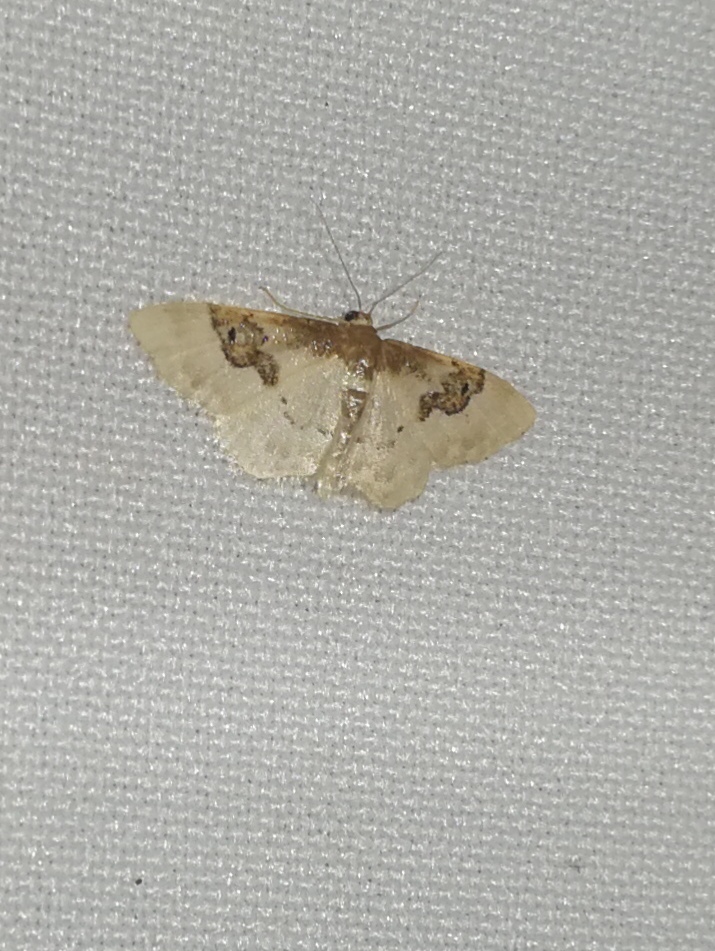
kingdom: Animalia
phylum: Arthropoda
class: Insecta
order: Lepidoptera
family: Geometridae
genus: Idaea
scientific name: Idaea rusticata
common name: Least carpet
